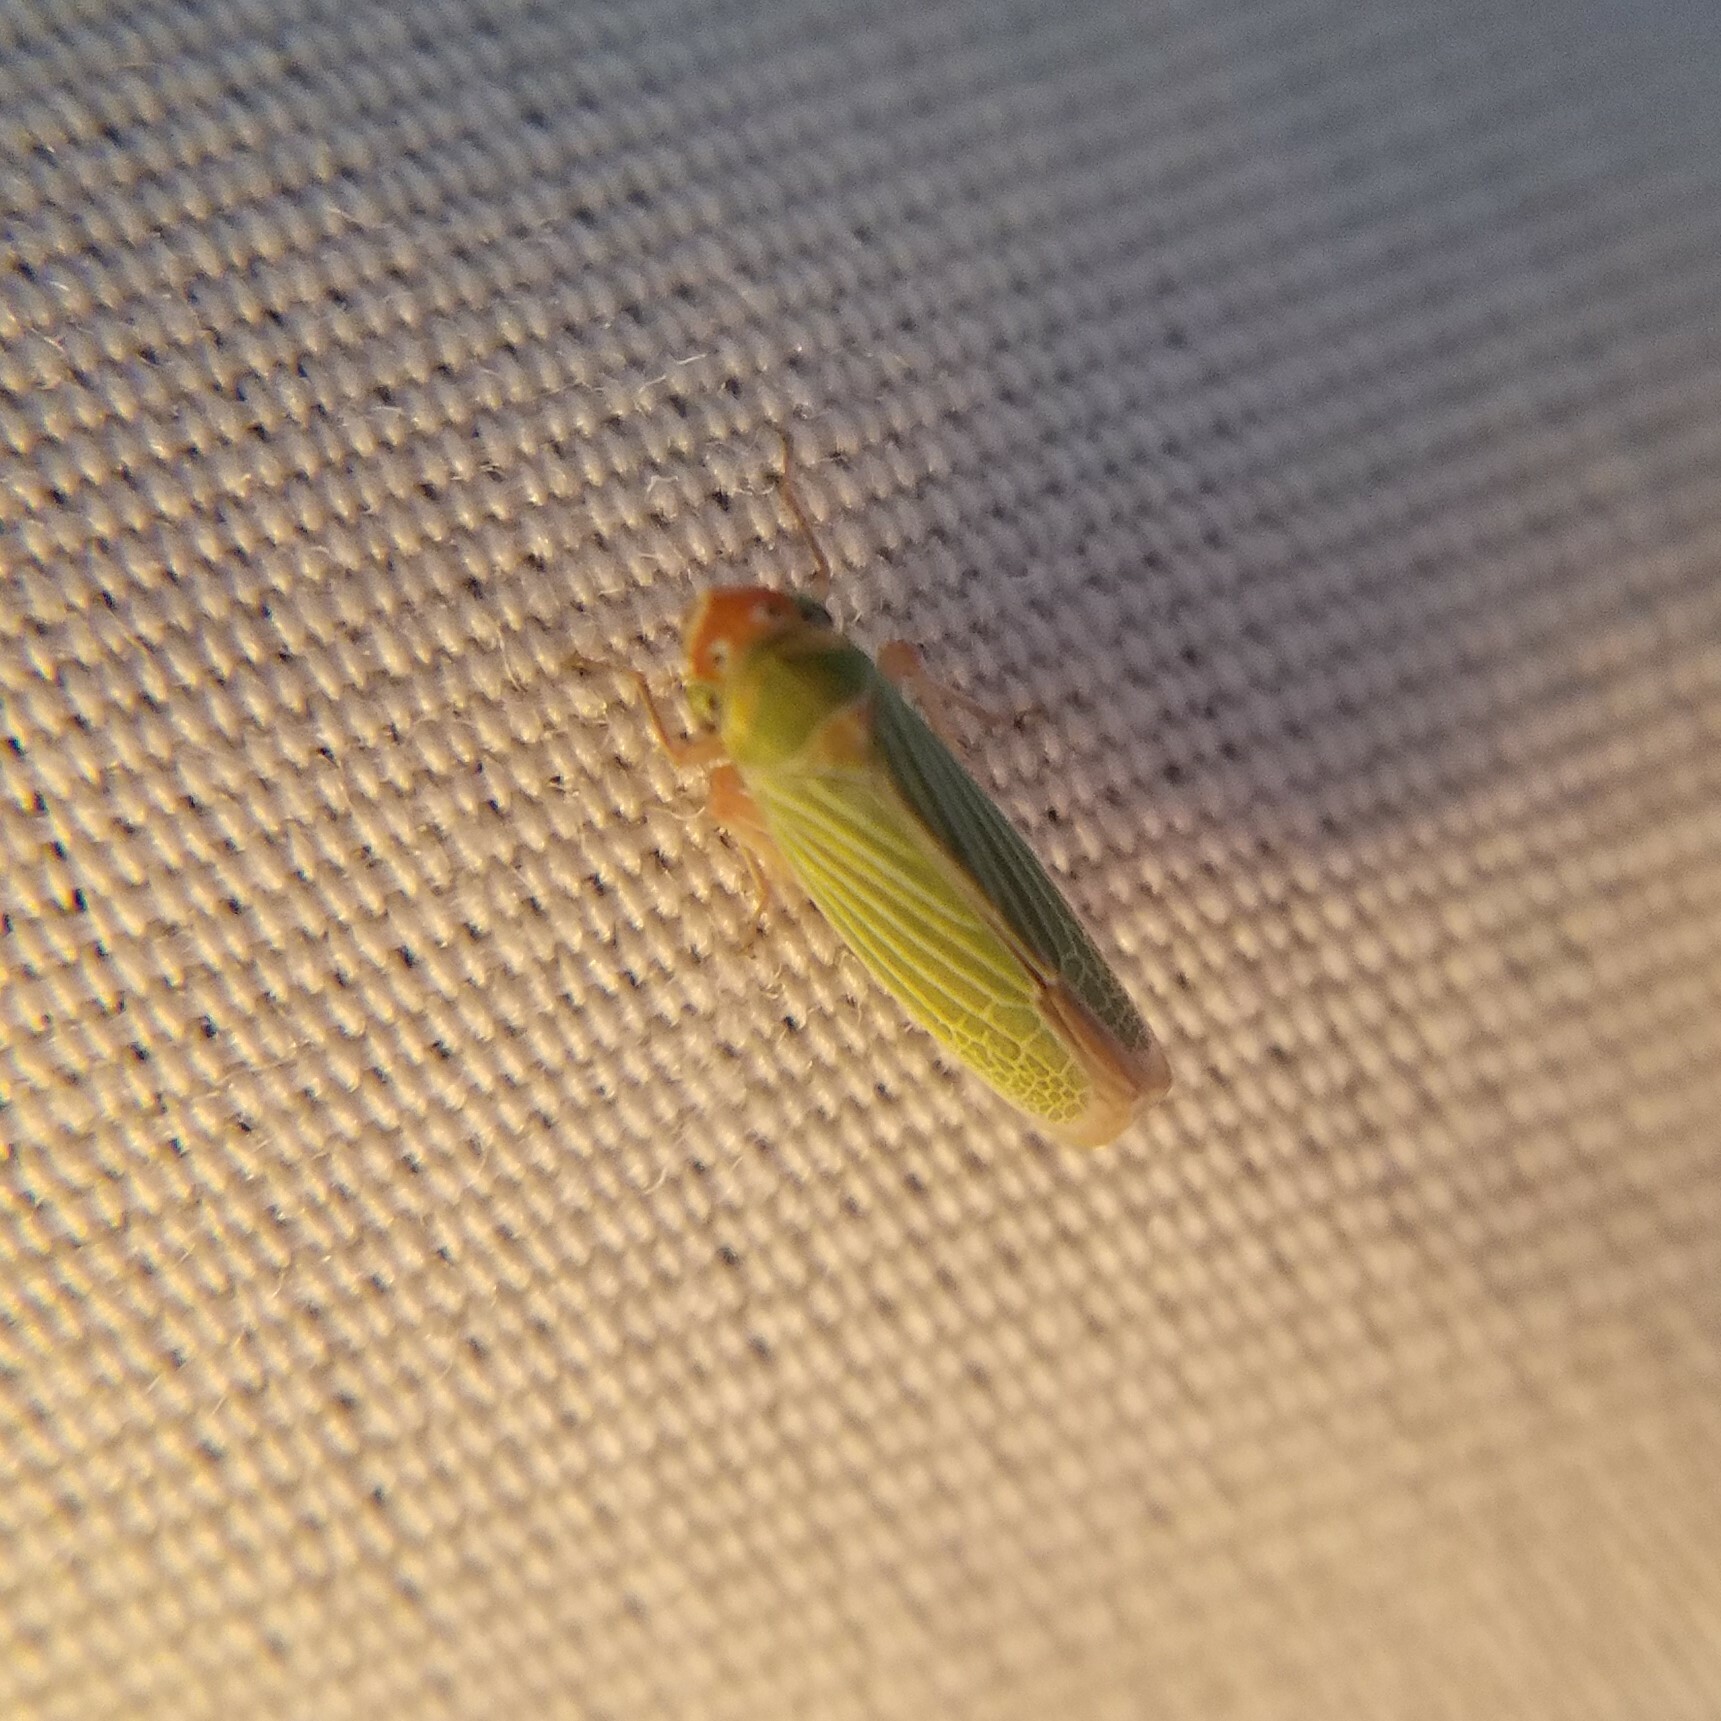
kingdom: Animalia
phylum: Arthropoda
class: Insecta
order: Hemiptera
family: Cicadellidae
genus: Xyphon
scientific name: Xyphon flaviceps
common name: Yellowheaded leafhopper
